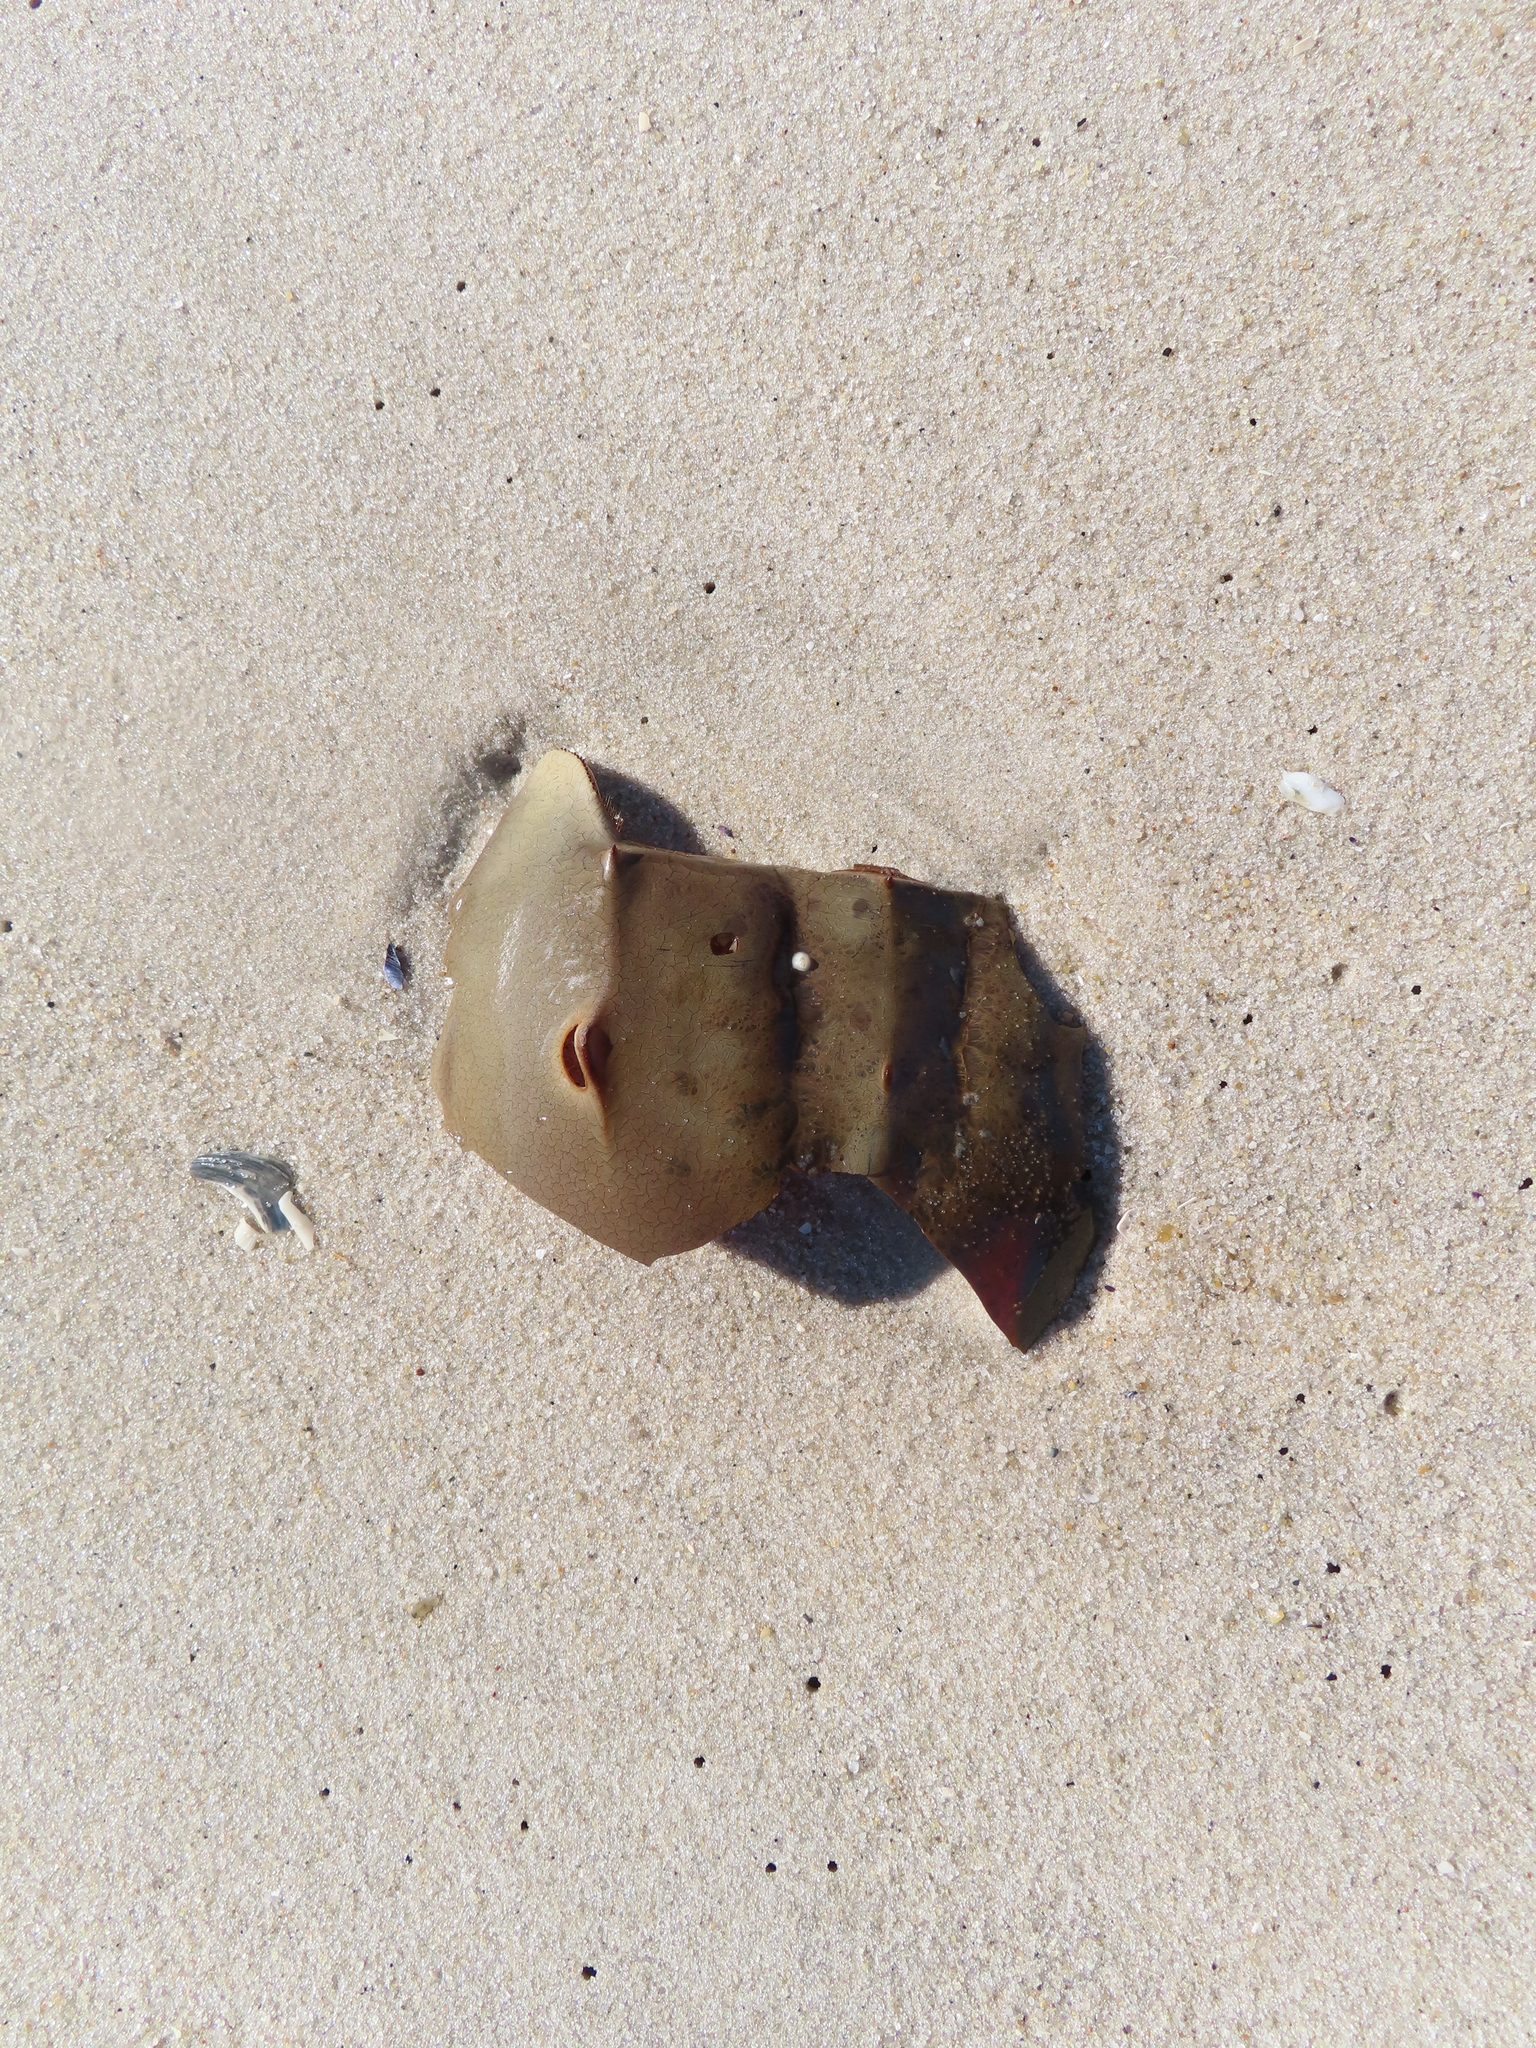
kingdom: Animalia
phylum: Arthropoda
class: Merostomata
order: Xiphosurida
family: Limulidae
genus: Limulus
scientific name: Limulus polyphemus
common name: Horseshoe crab
